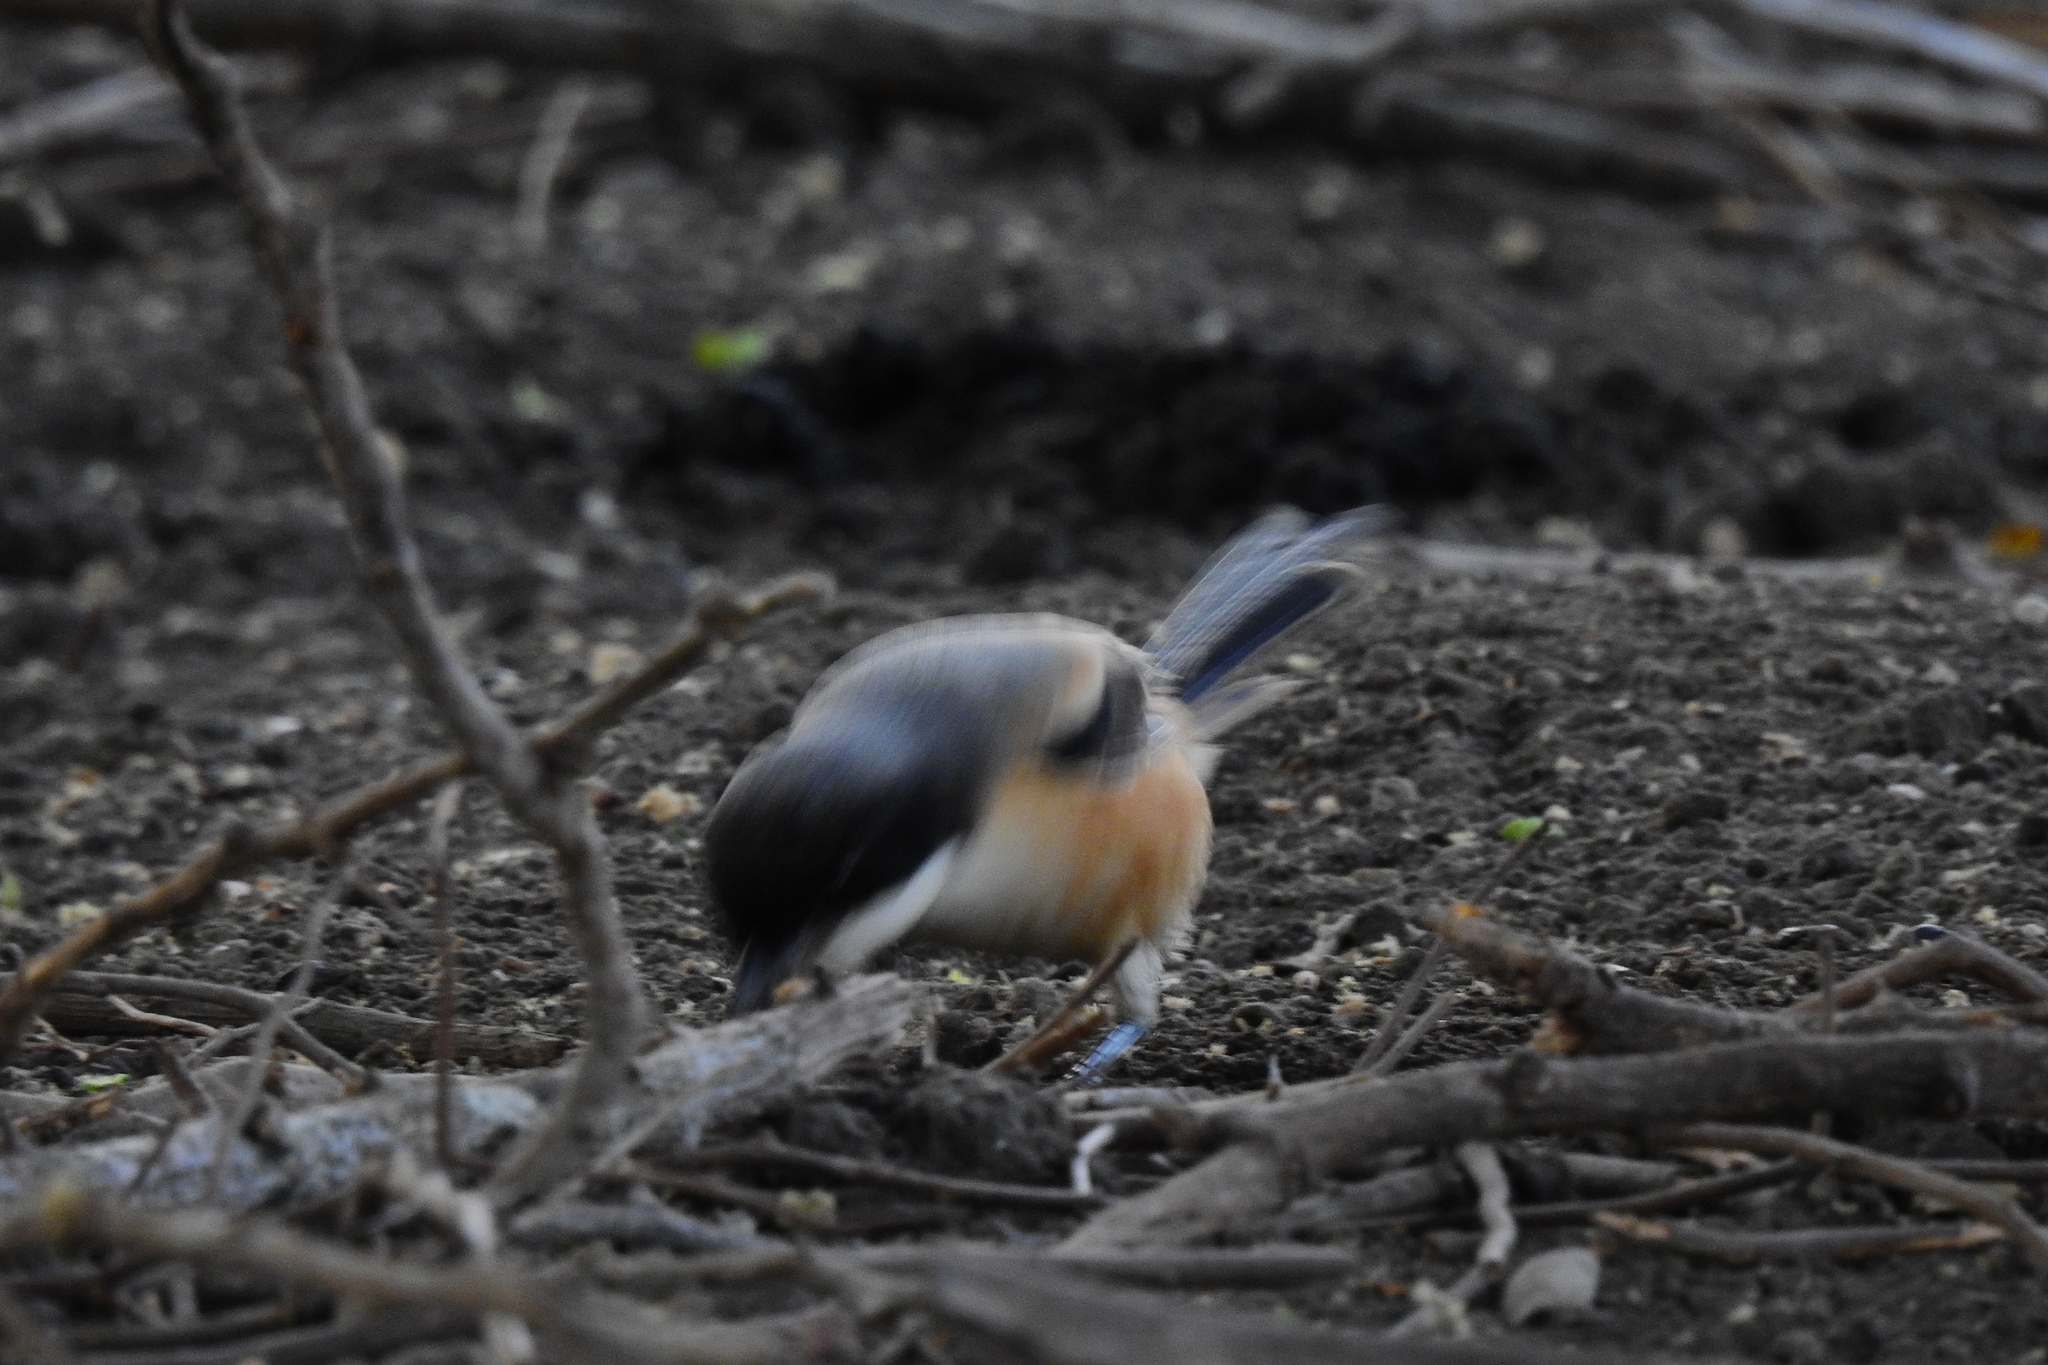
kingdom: Animalia
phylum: Chordata
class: Aves
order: Passeriformes
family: Laniidae
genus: Lanius
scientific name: Lanius schach
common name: Long-tailed shrike
